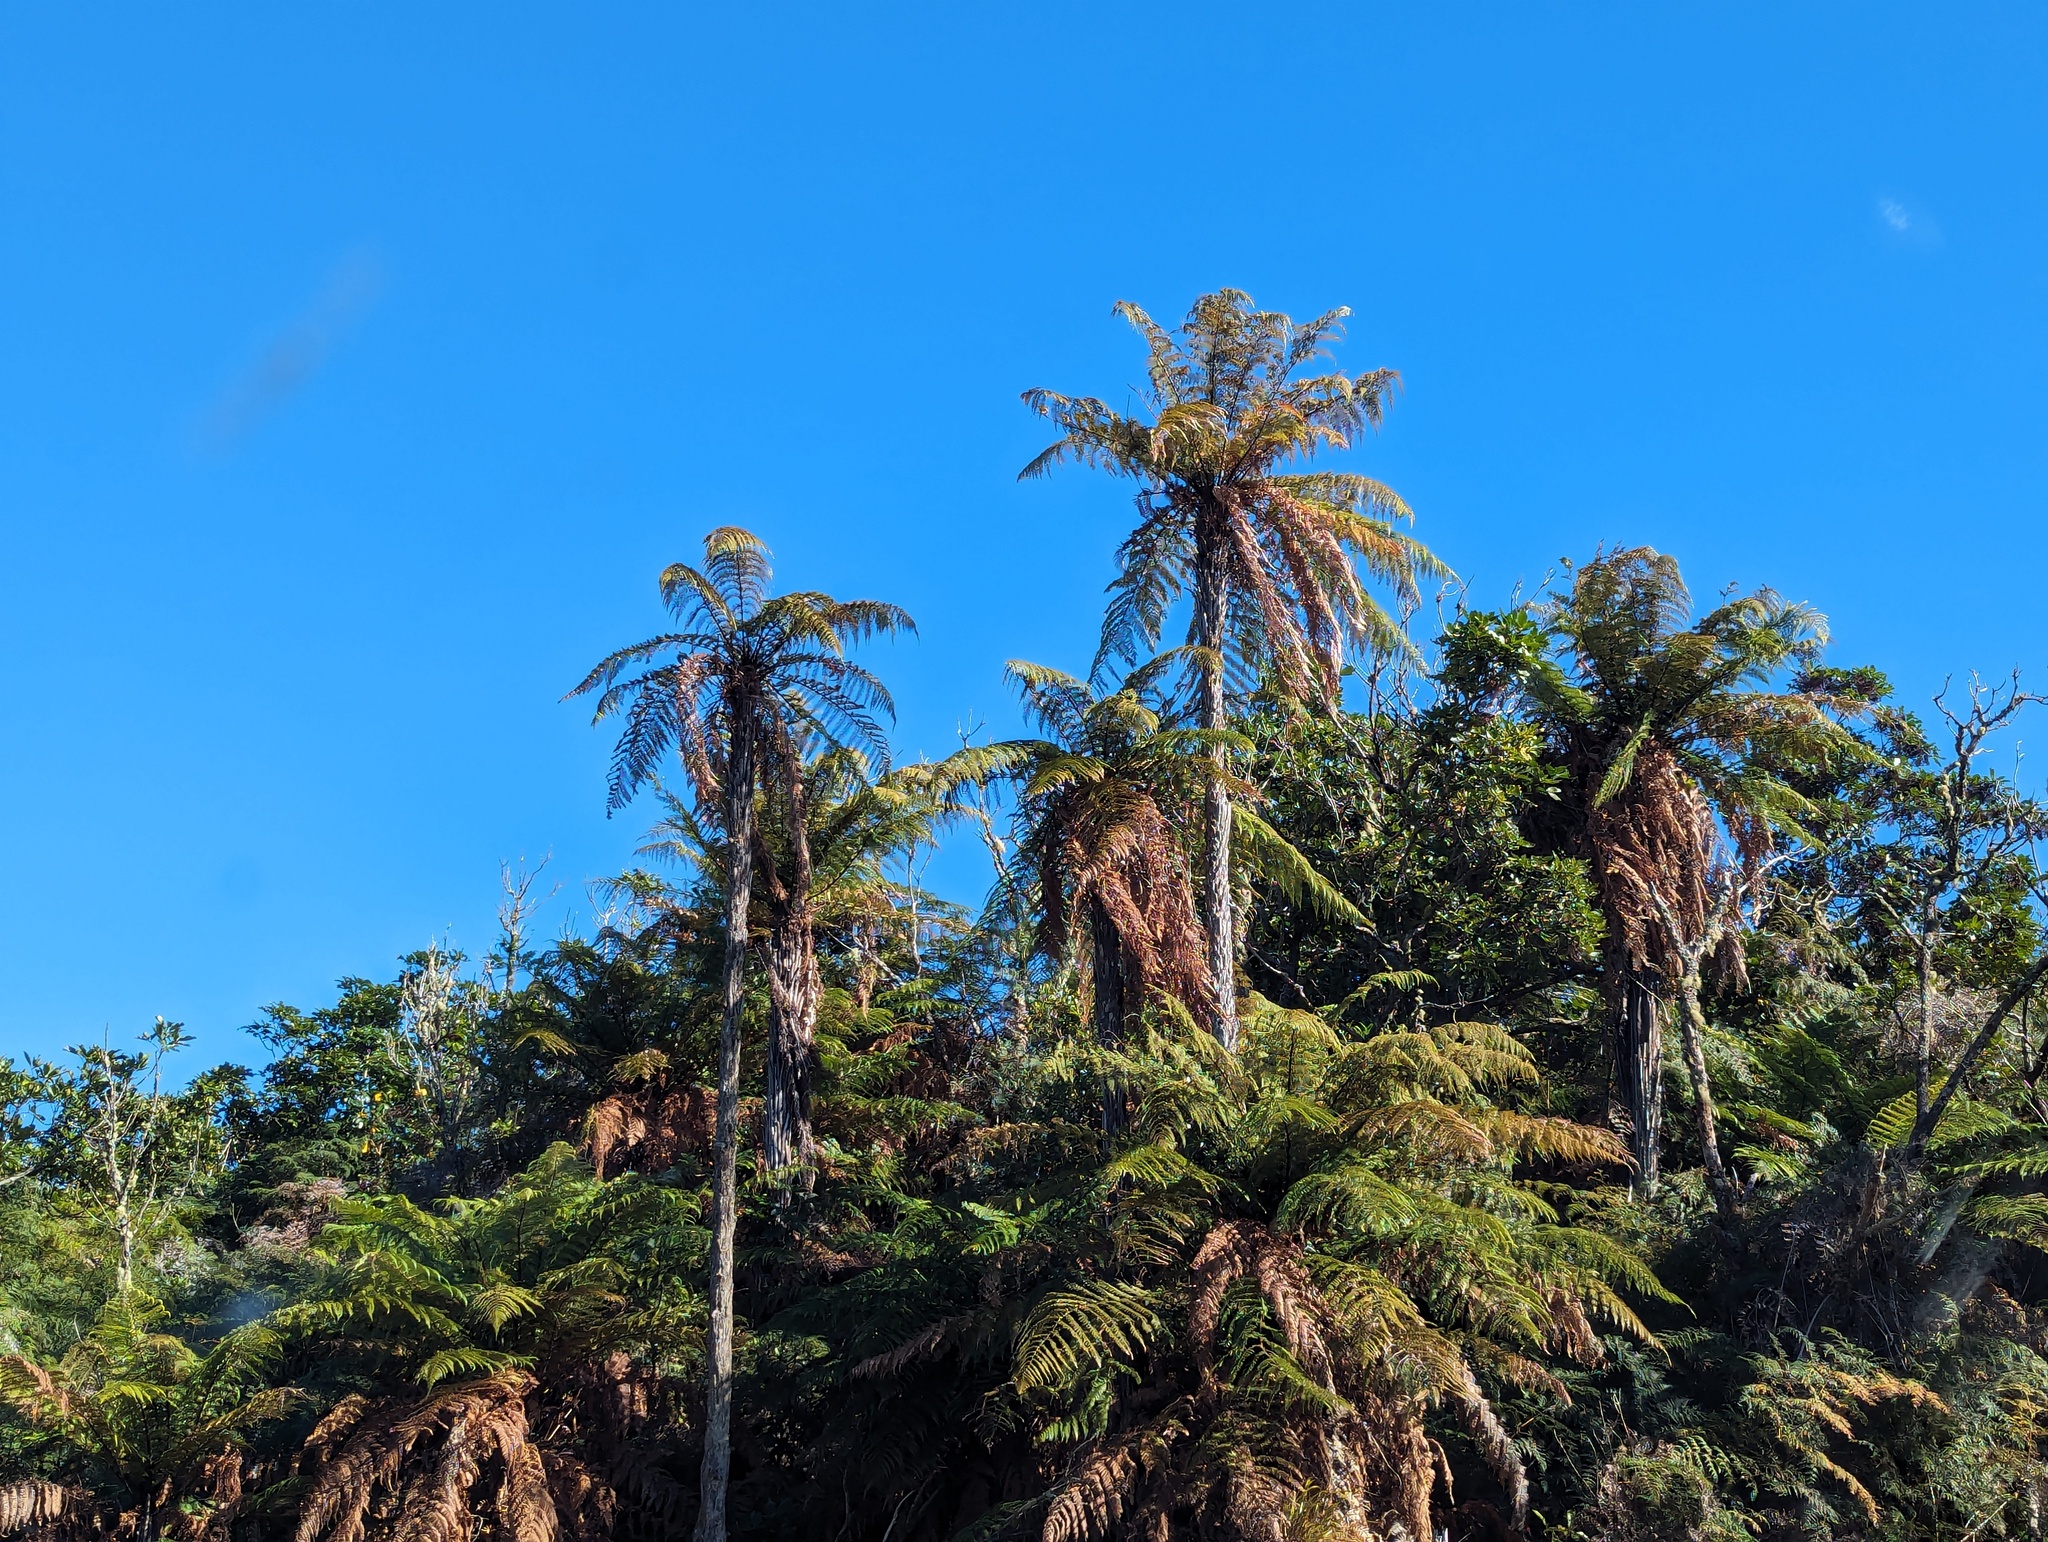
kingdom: Plantae
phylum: Tracheophyta
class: Polypodiopsida
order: Cyatheales
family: Dicksoniaceae
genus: Dicksonia
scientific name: Dicksonia squarrosa
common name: Hard treefern
